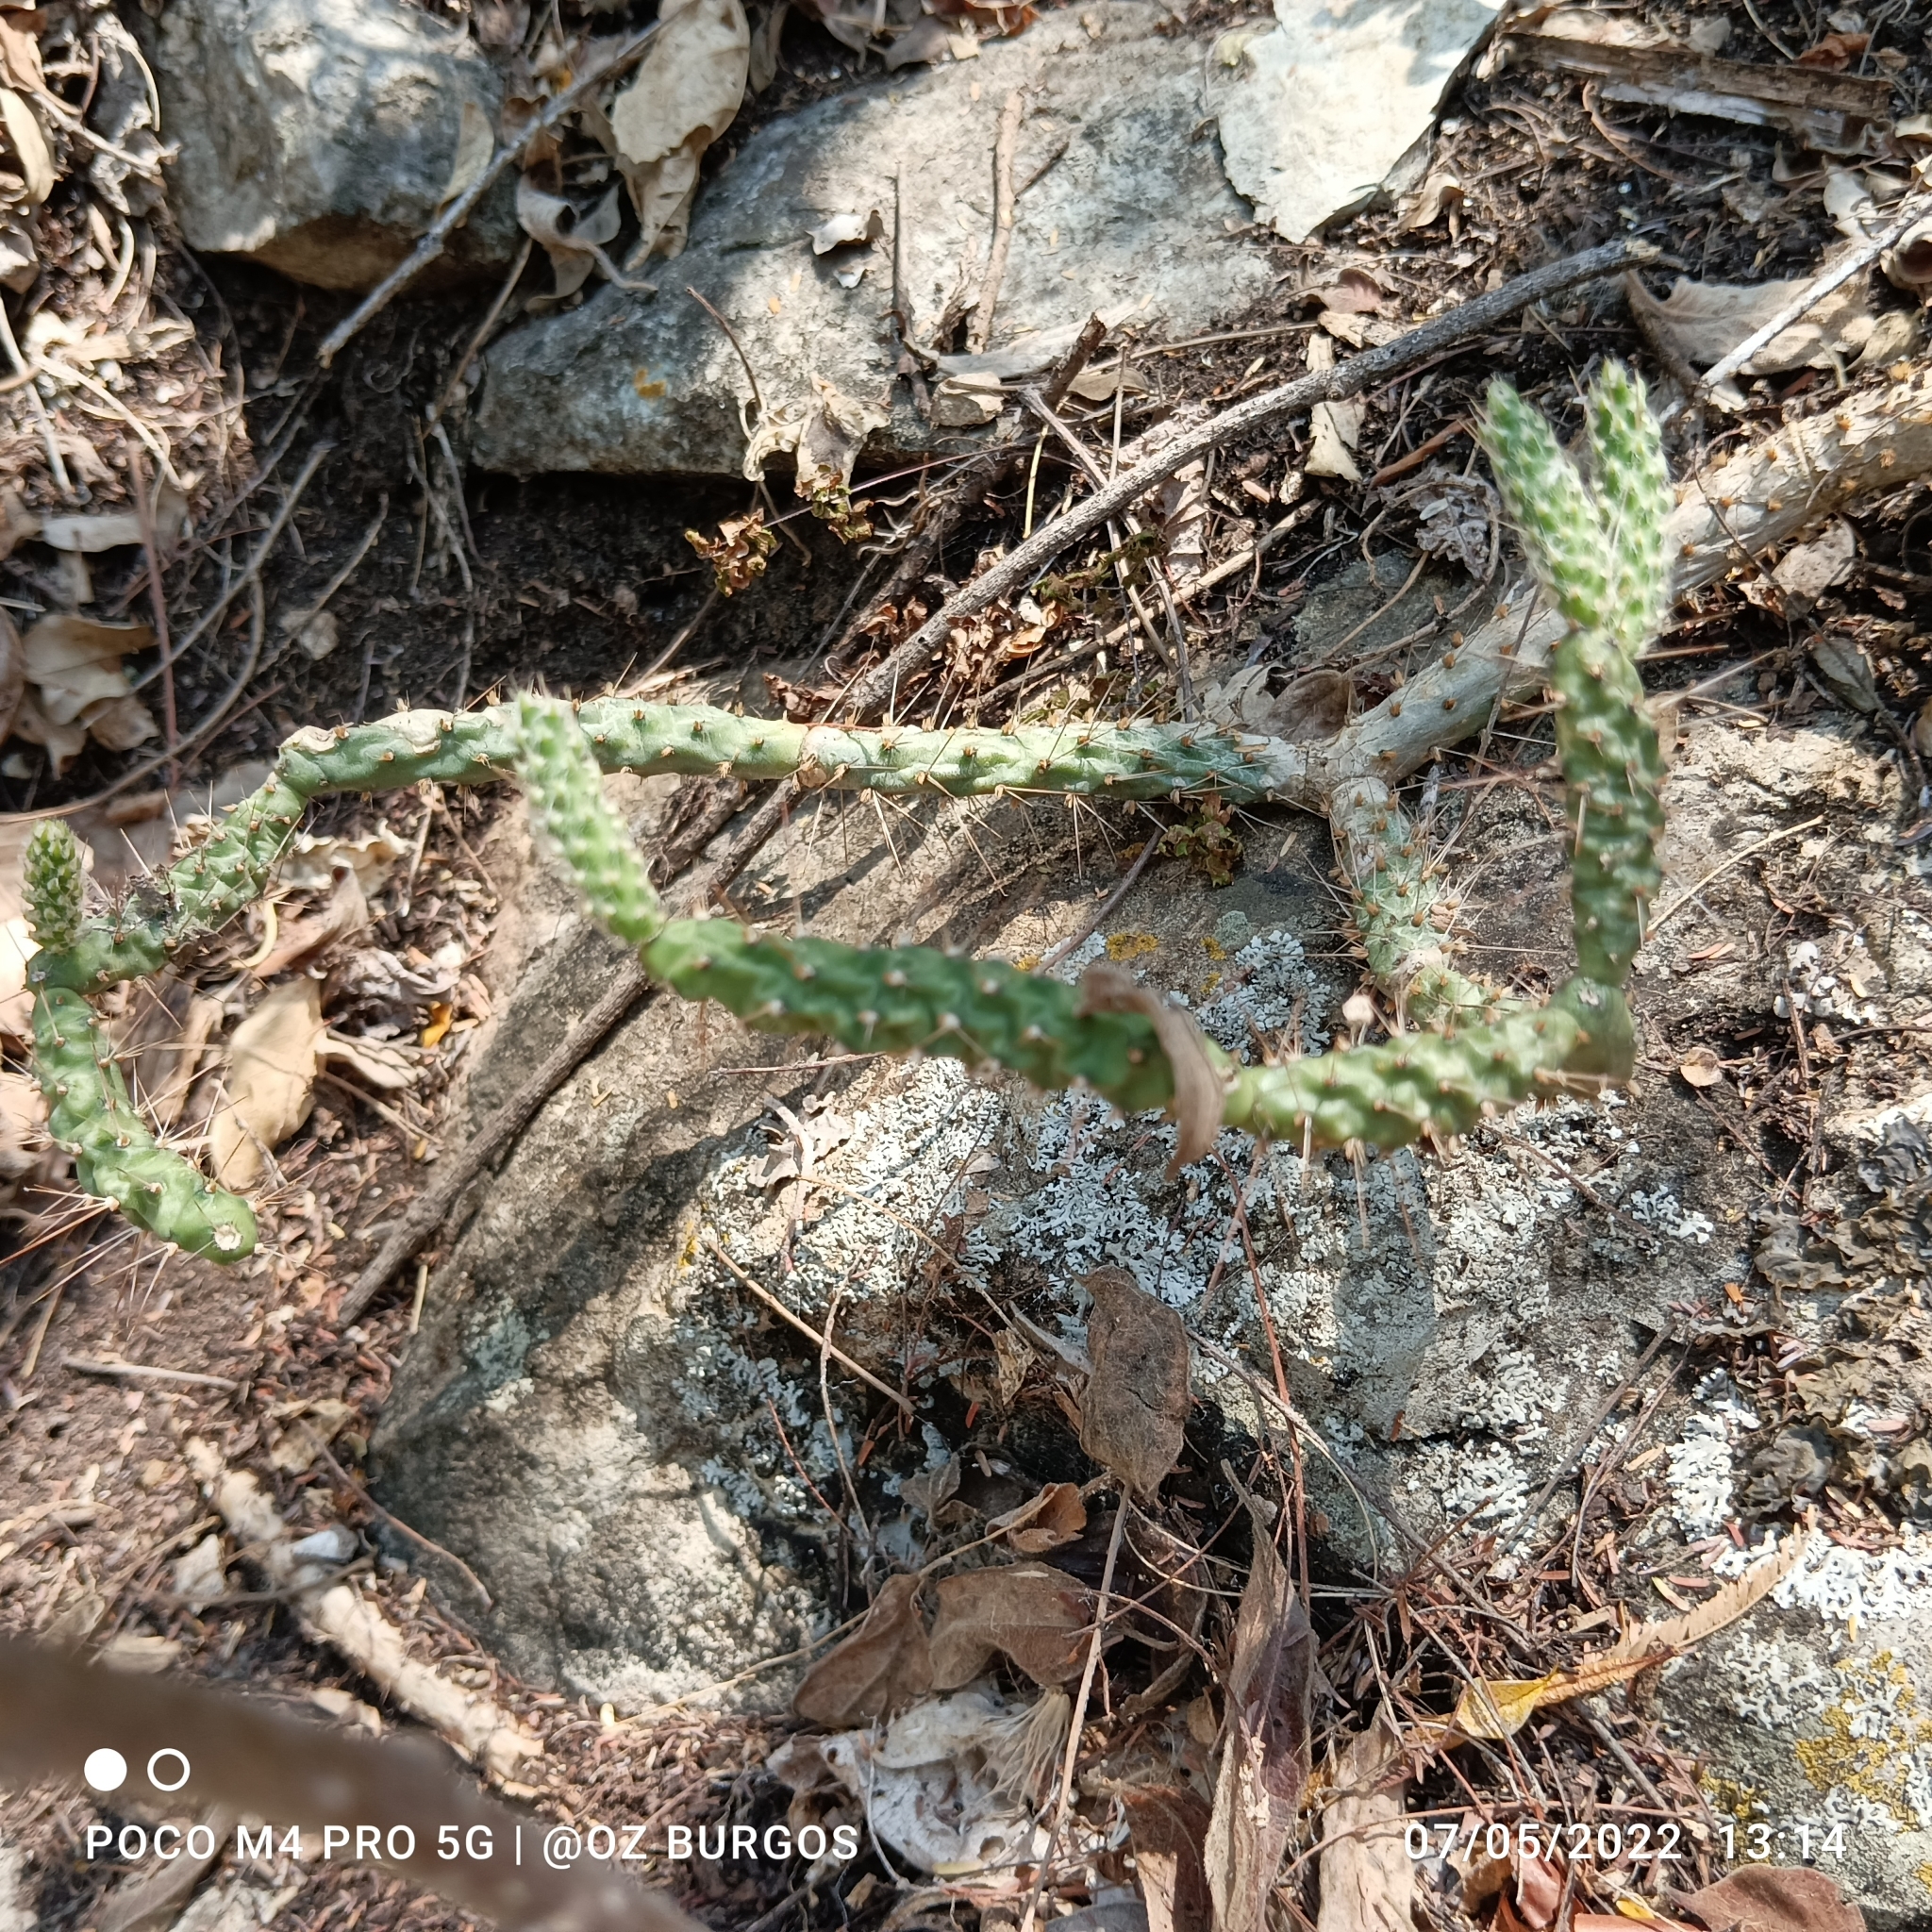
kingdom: Plantae
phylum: Tracheophyta
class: Magnoliopsida
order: Caryophyllales
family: Cactaceae
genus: Opuntia
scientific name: Opuntia pubescens
